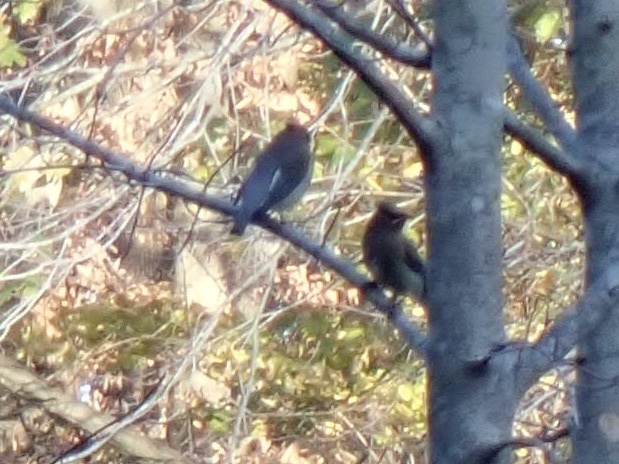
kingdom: Animalia
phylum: Chordata
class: Aves
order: Passeriformes
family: Bombycillidae
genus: Bombycilla
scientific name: Bombycilla cedrorum
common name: Cedar waxwing
